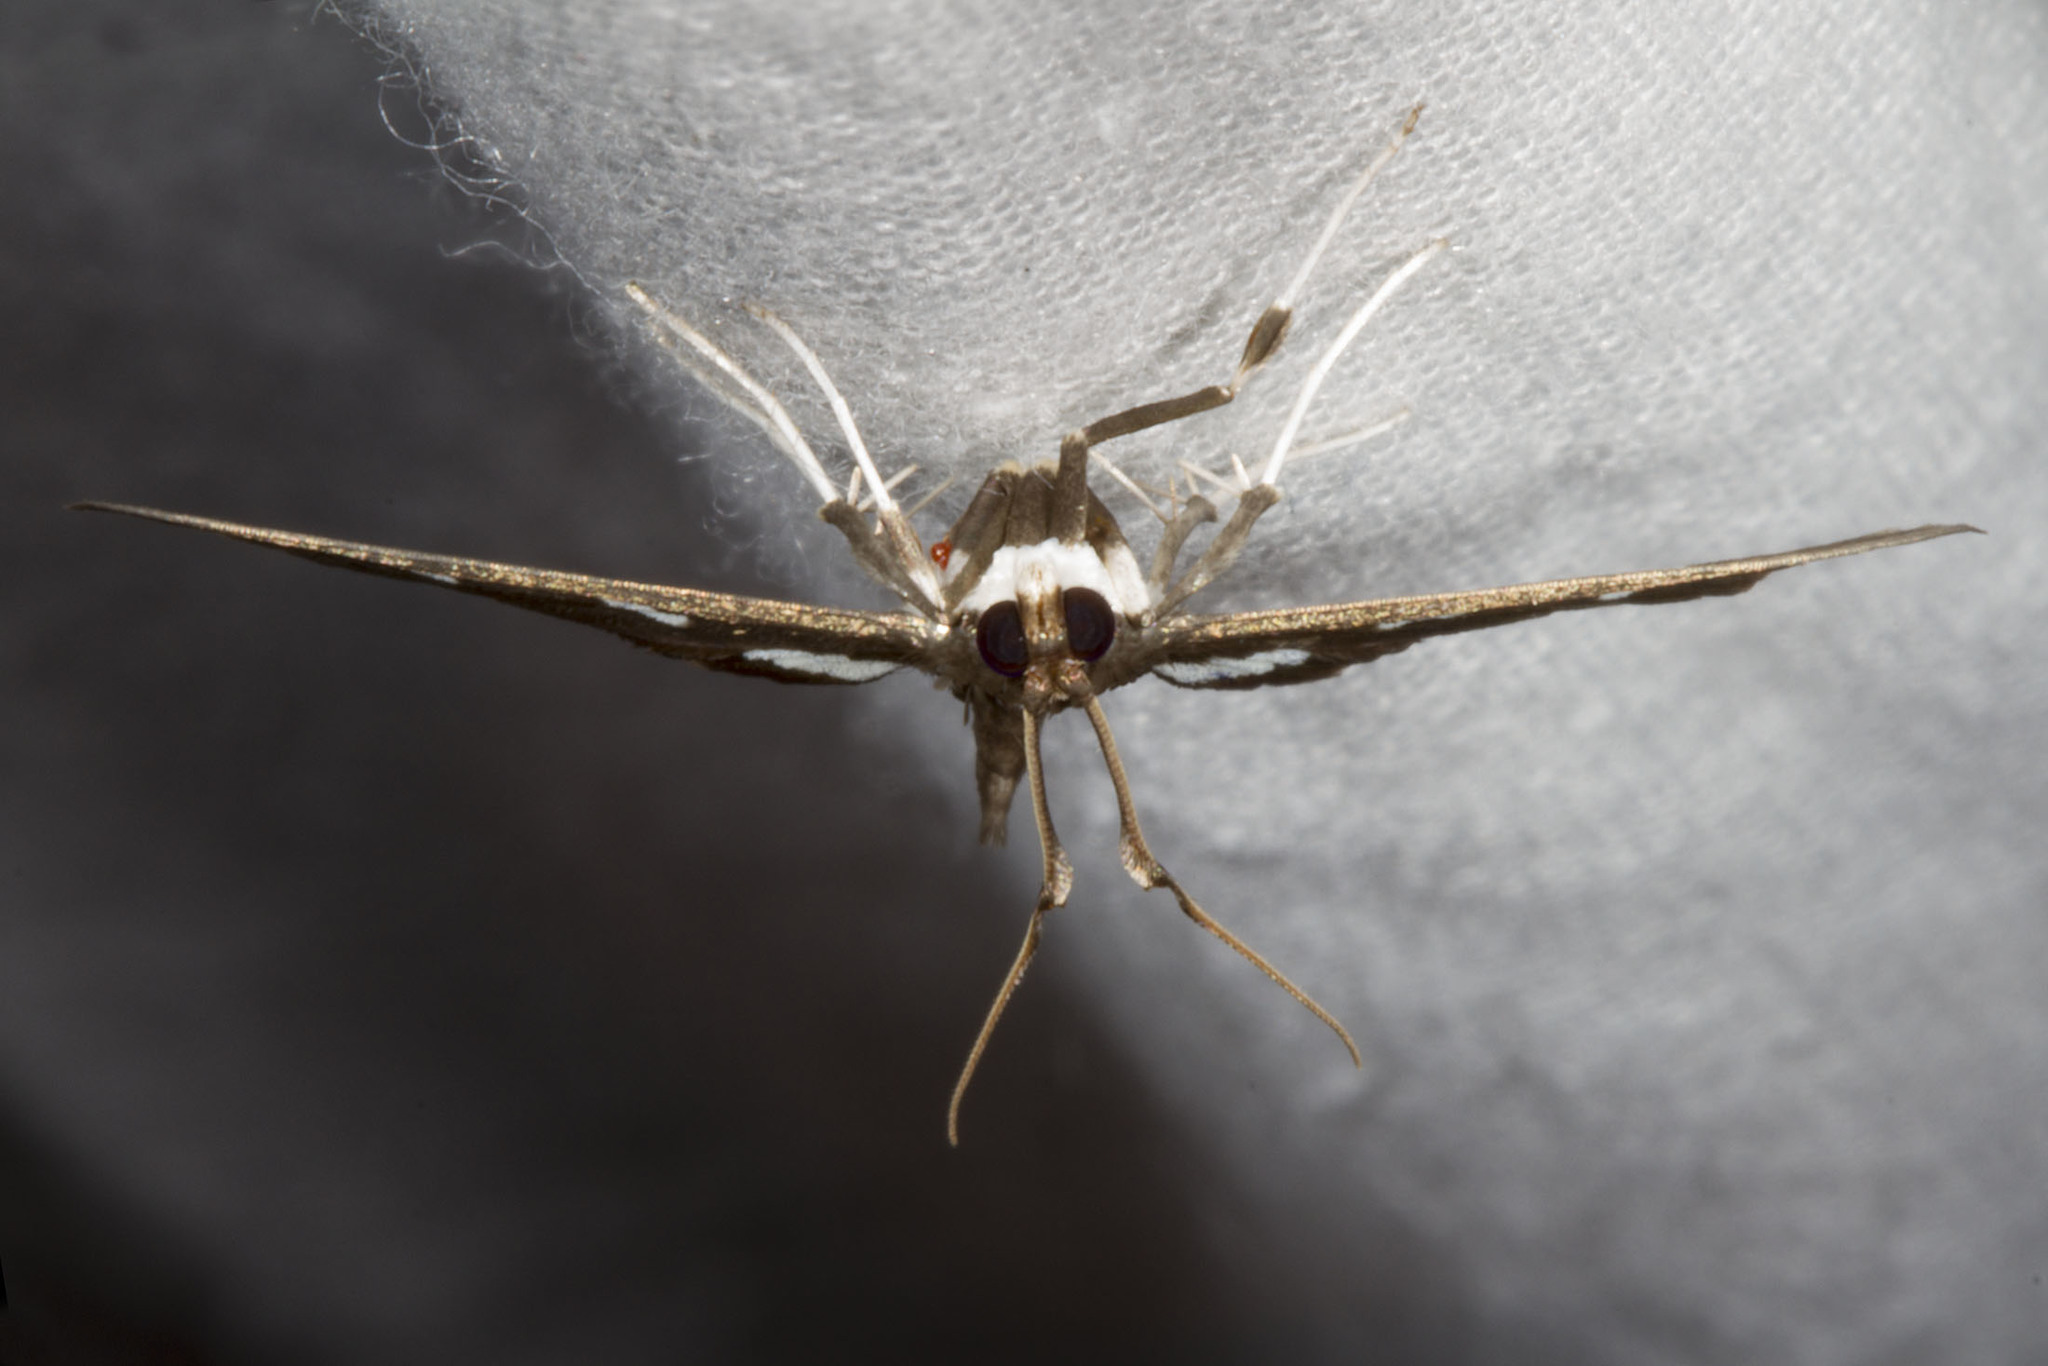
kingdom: Animalia
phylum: Arthropoda
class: Insecta
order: Lepidoptera
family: Crambidae
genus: Desmia
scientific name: Desmia
